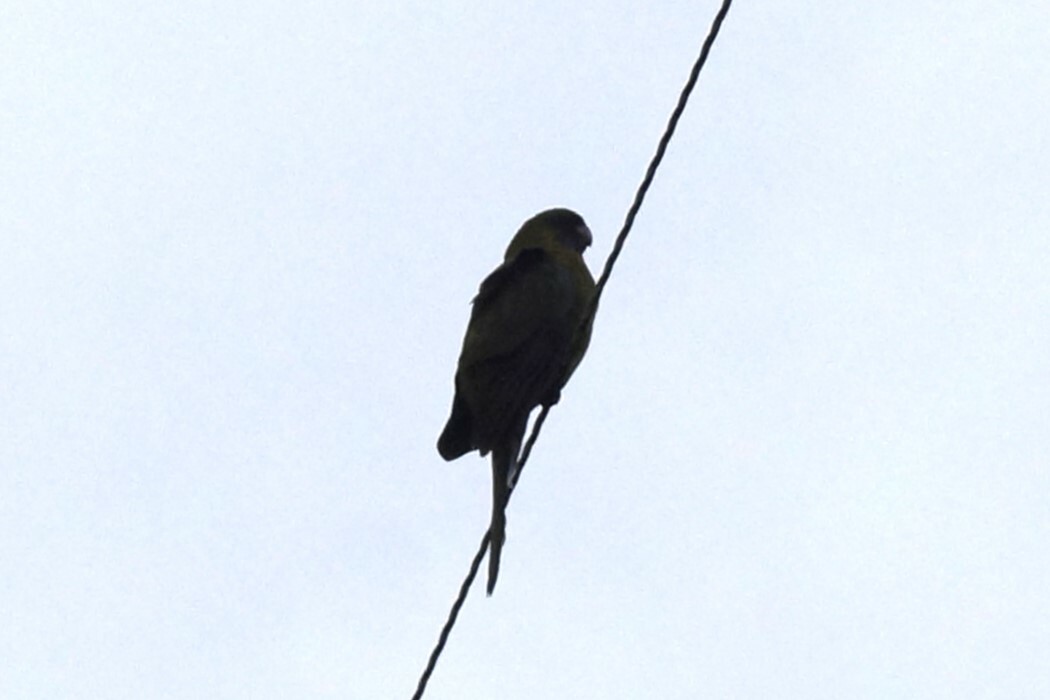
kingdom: Animalia
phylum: Chordata
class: Aves
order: Psittaciformes
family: Psittacidae
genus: Platycercus
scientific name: Platycercus caledonicus
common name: Green rosella
